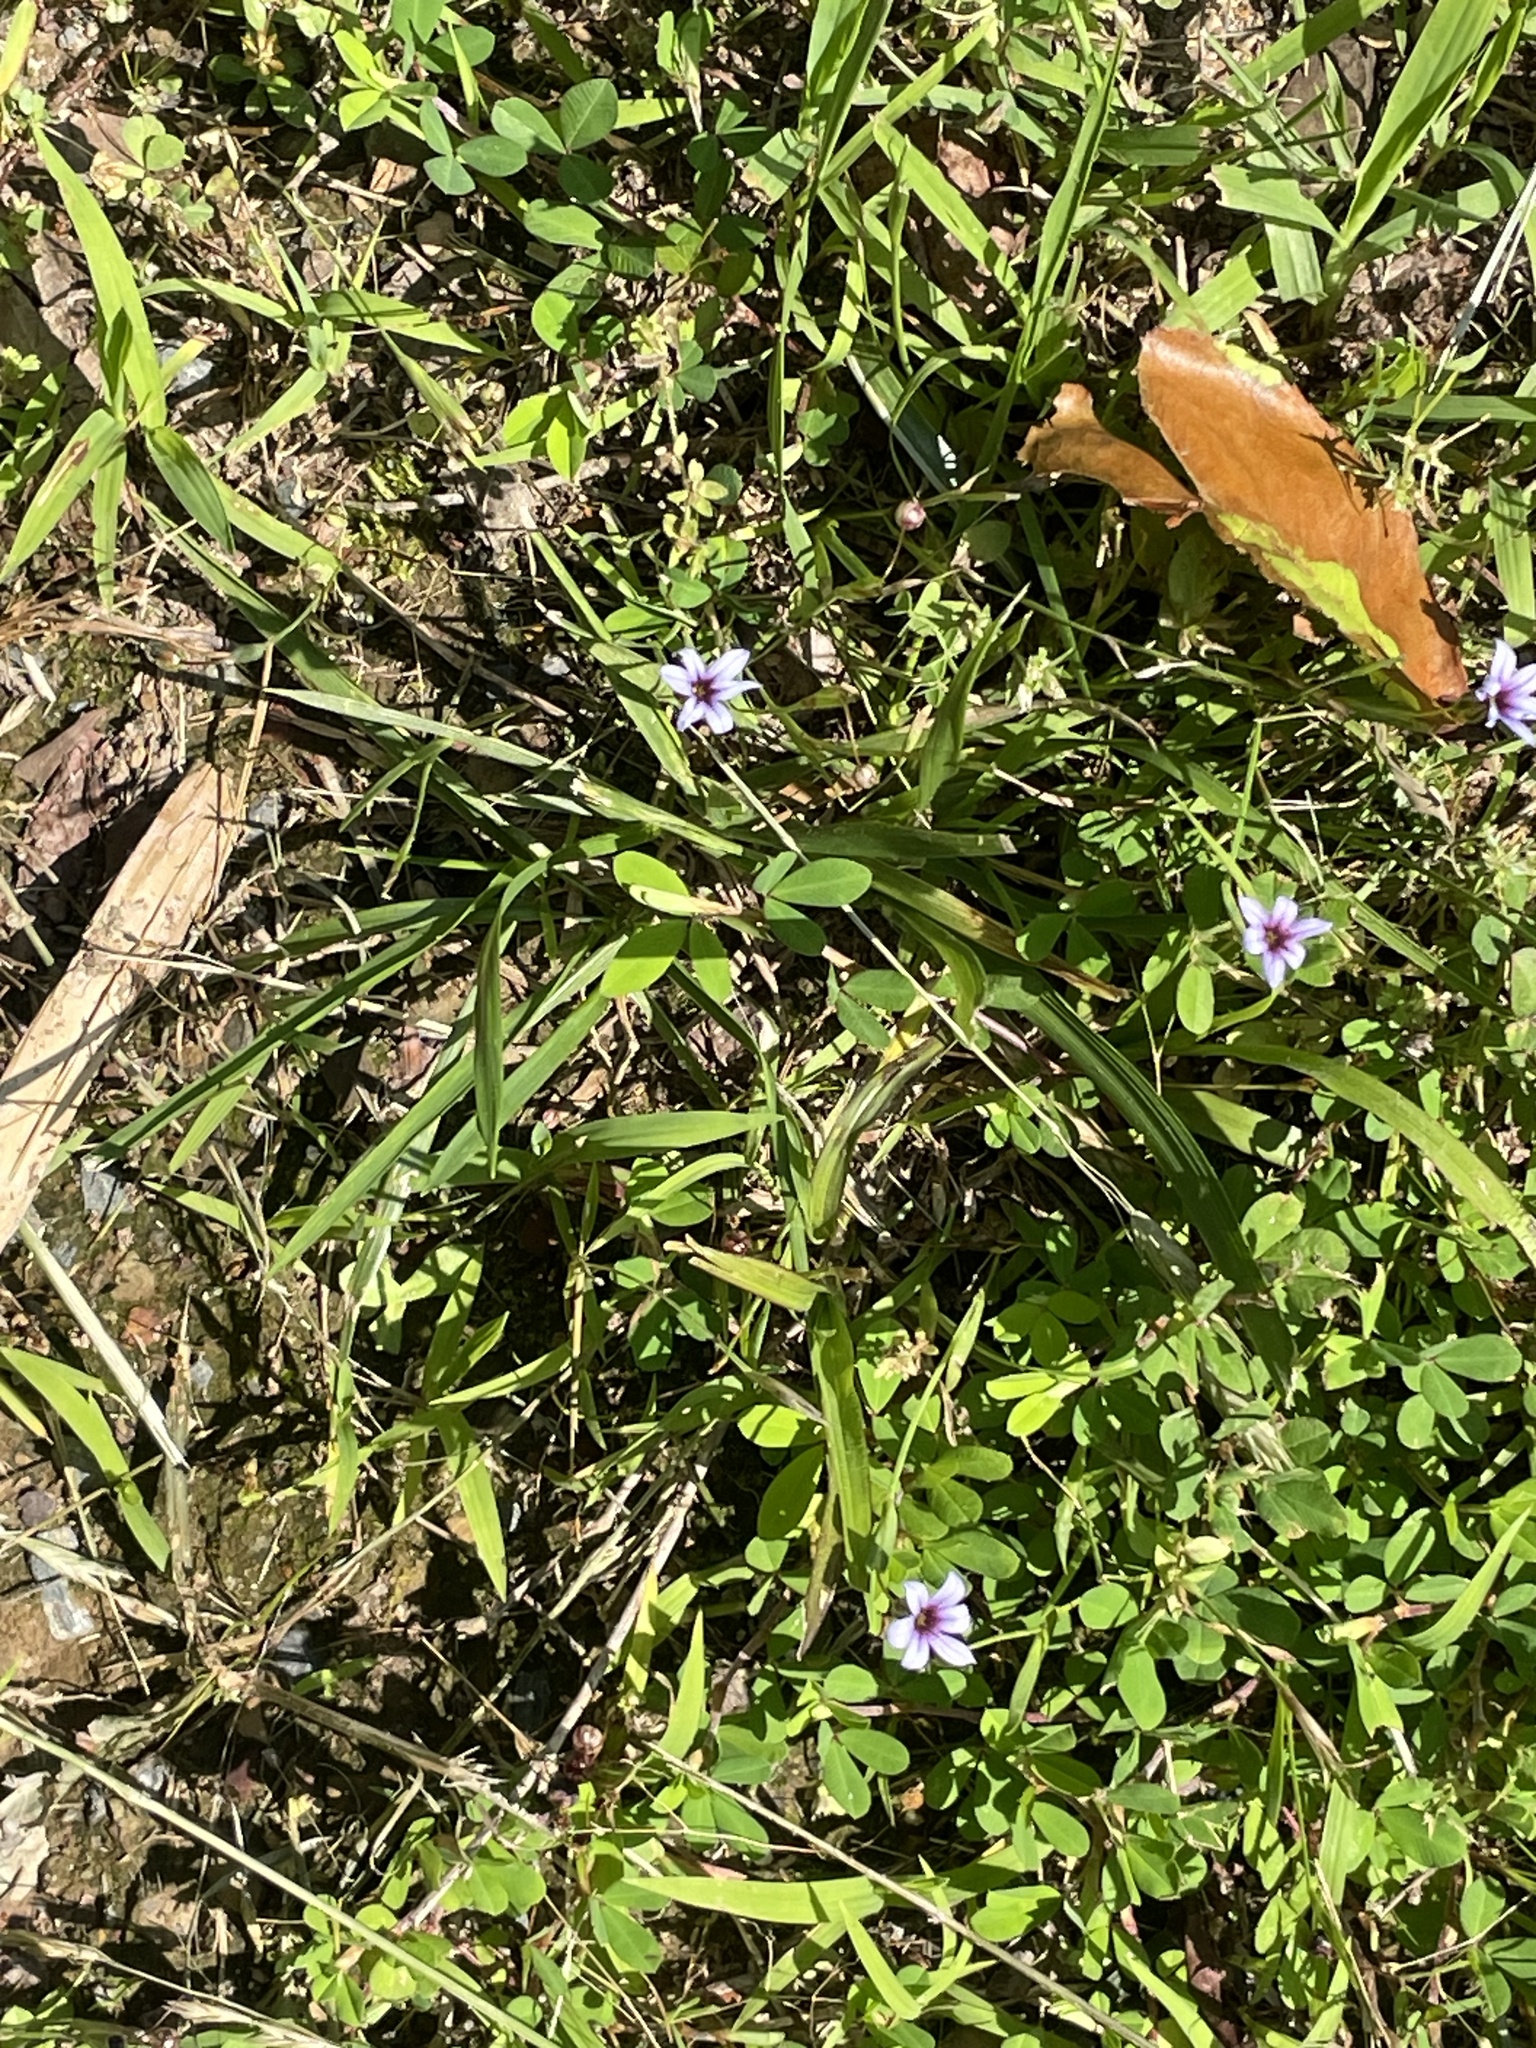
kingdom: Plantae
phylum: Tracheophyta
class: Liliopsida
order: Asparagales
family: Iridaceae
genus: Sisyrinchium
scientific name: Sisyrinchium micranthum
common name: Bermuda pigroot
